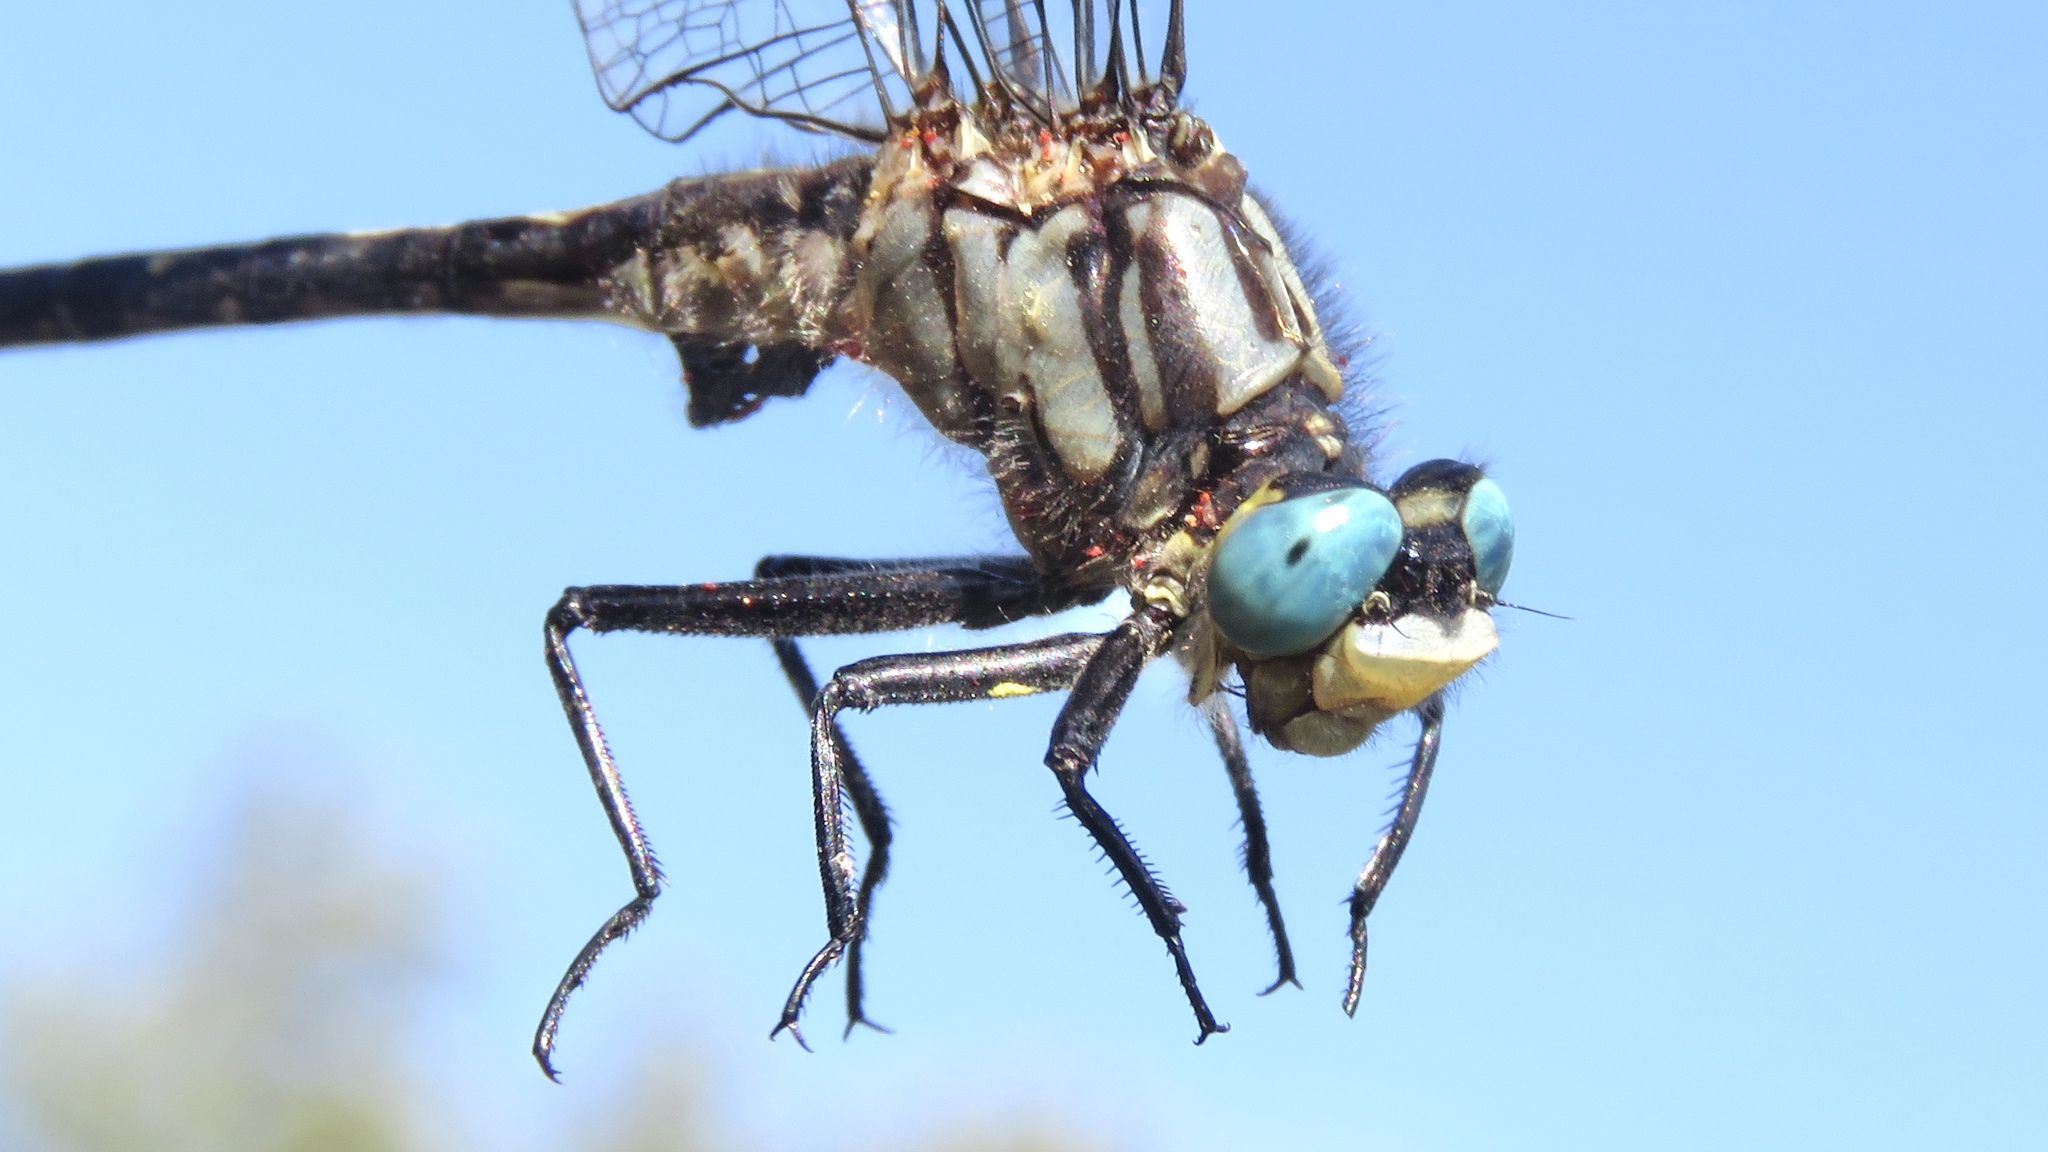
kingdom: Animalia
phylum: Arthropoda
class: Insecta
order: Odonata
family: Gomphidae
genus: Arigomphus
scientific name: Arigomphus furcifer
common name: Lilypad clubtail
